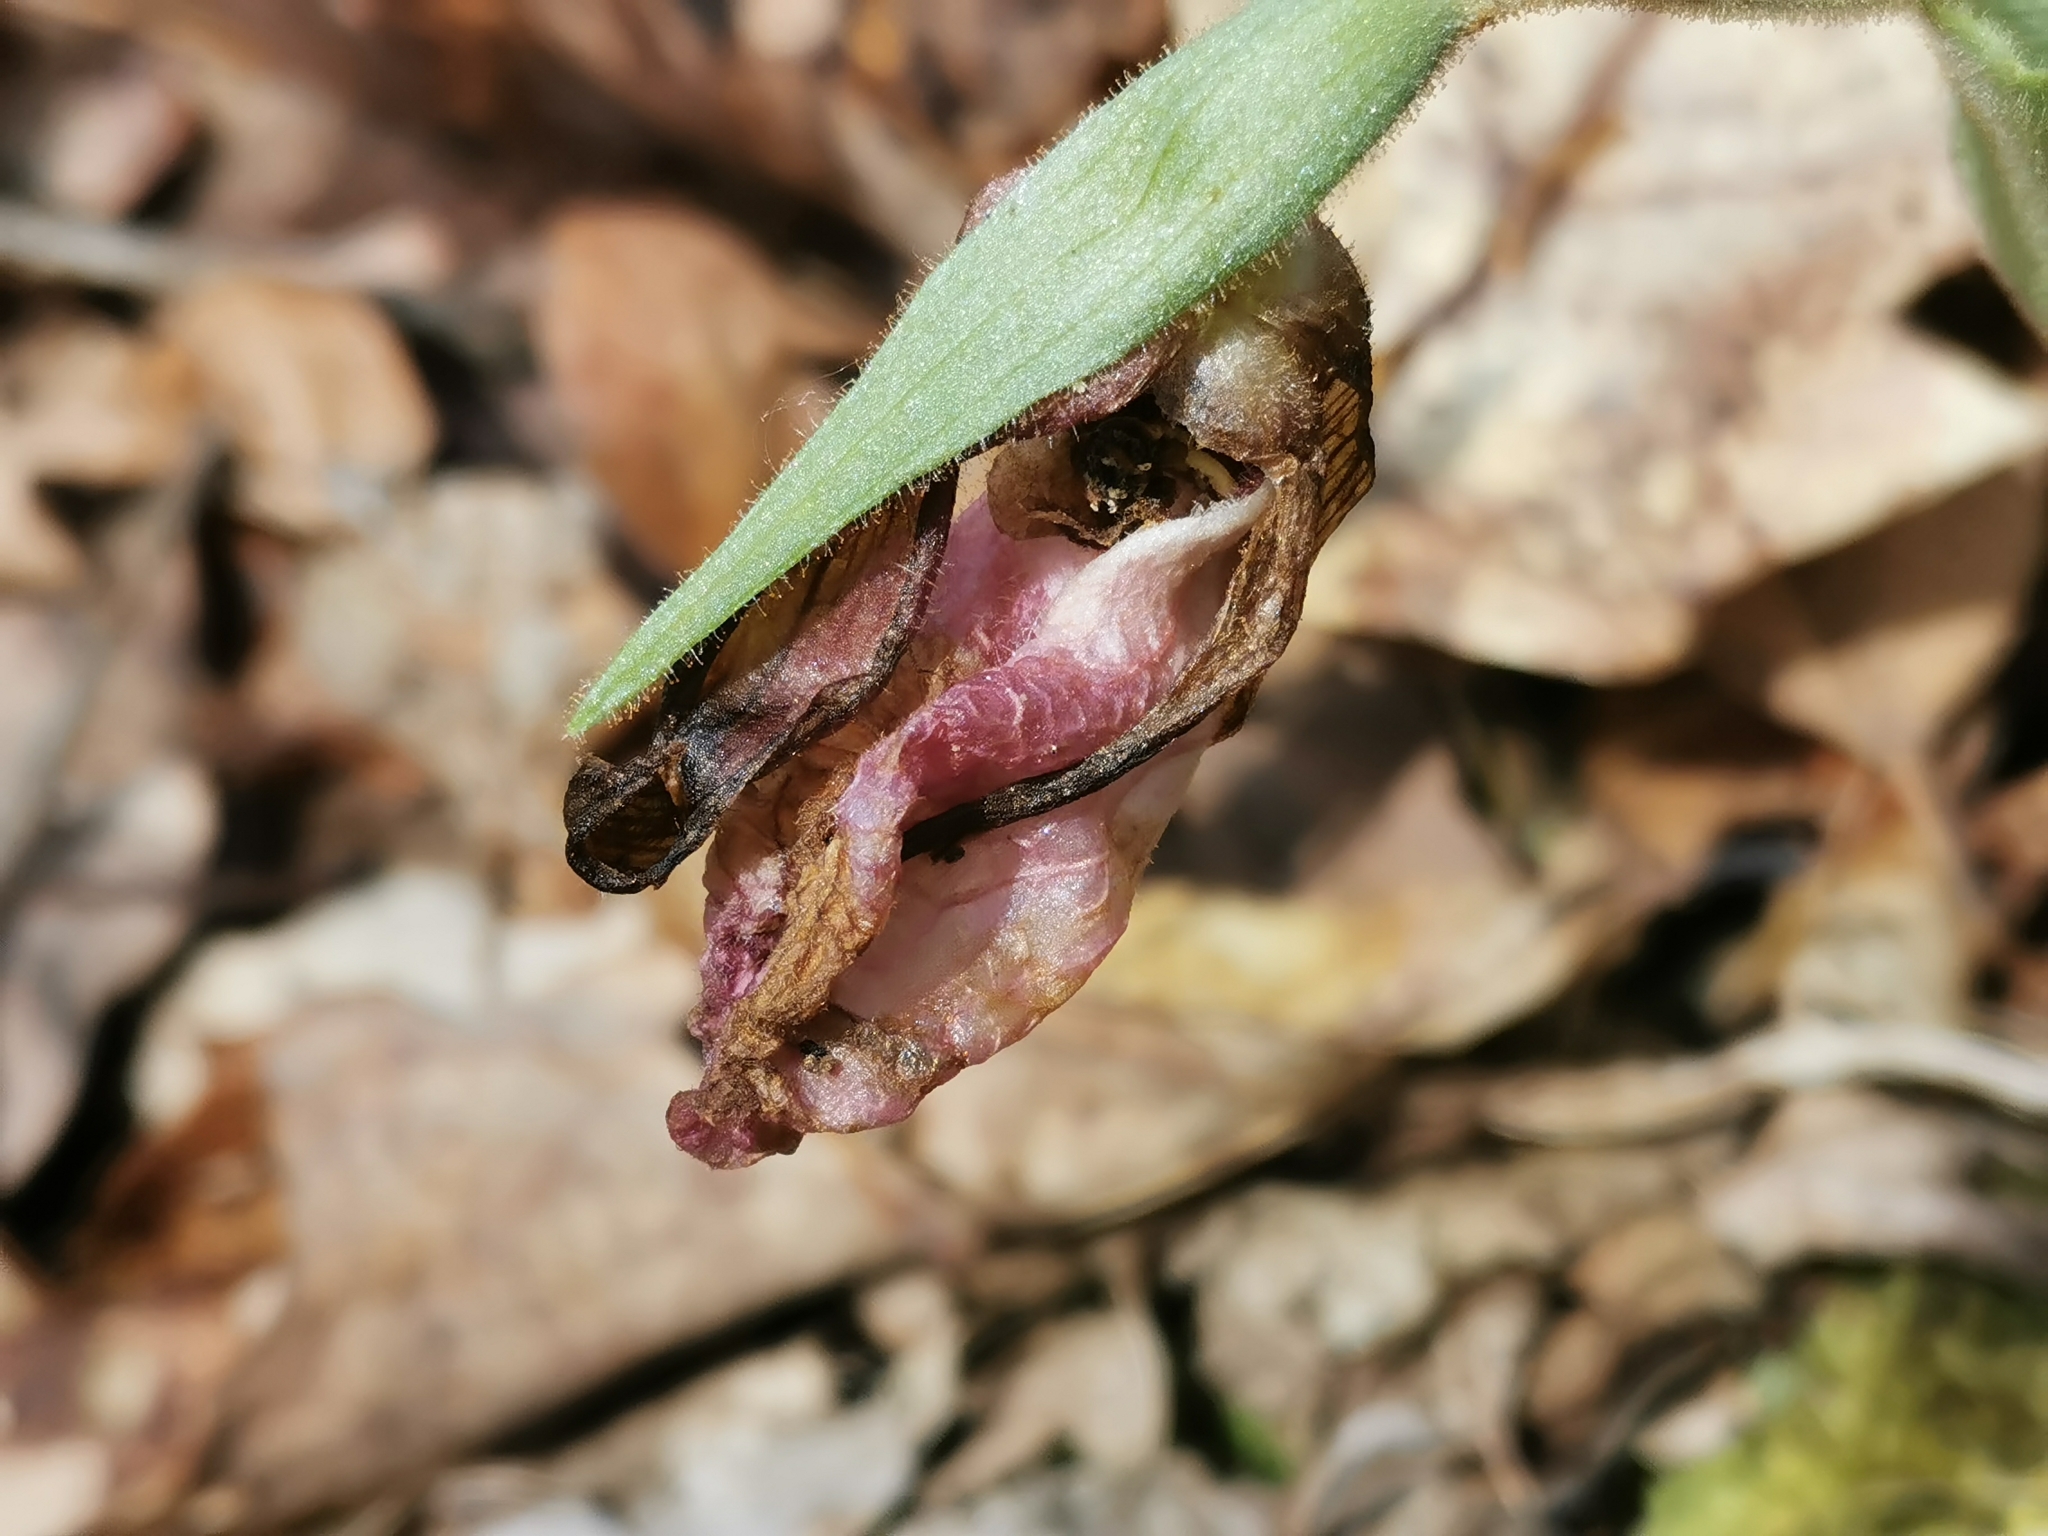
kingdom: Plantae
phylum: Tracheophyta
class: Liliopsida
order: Asparagales
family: Orchidaceae
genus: Cypripedium
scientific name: Cypripedium acaule
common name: Pink lady's-slipper
